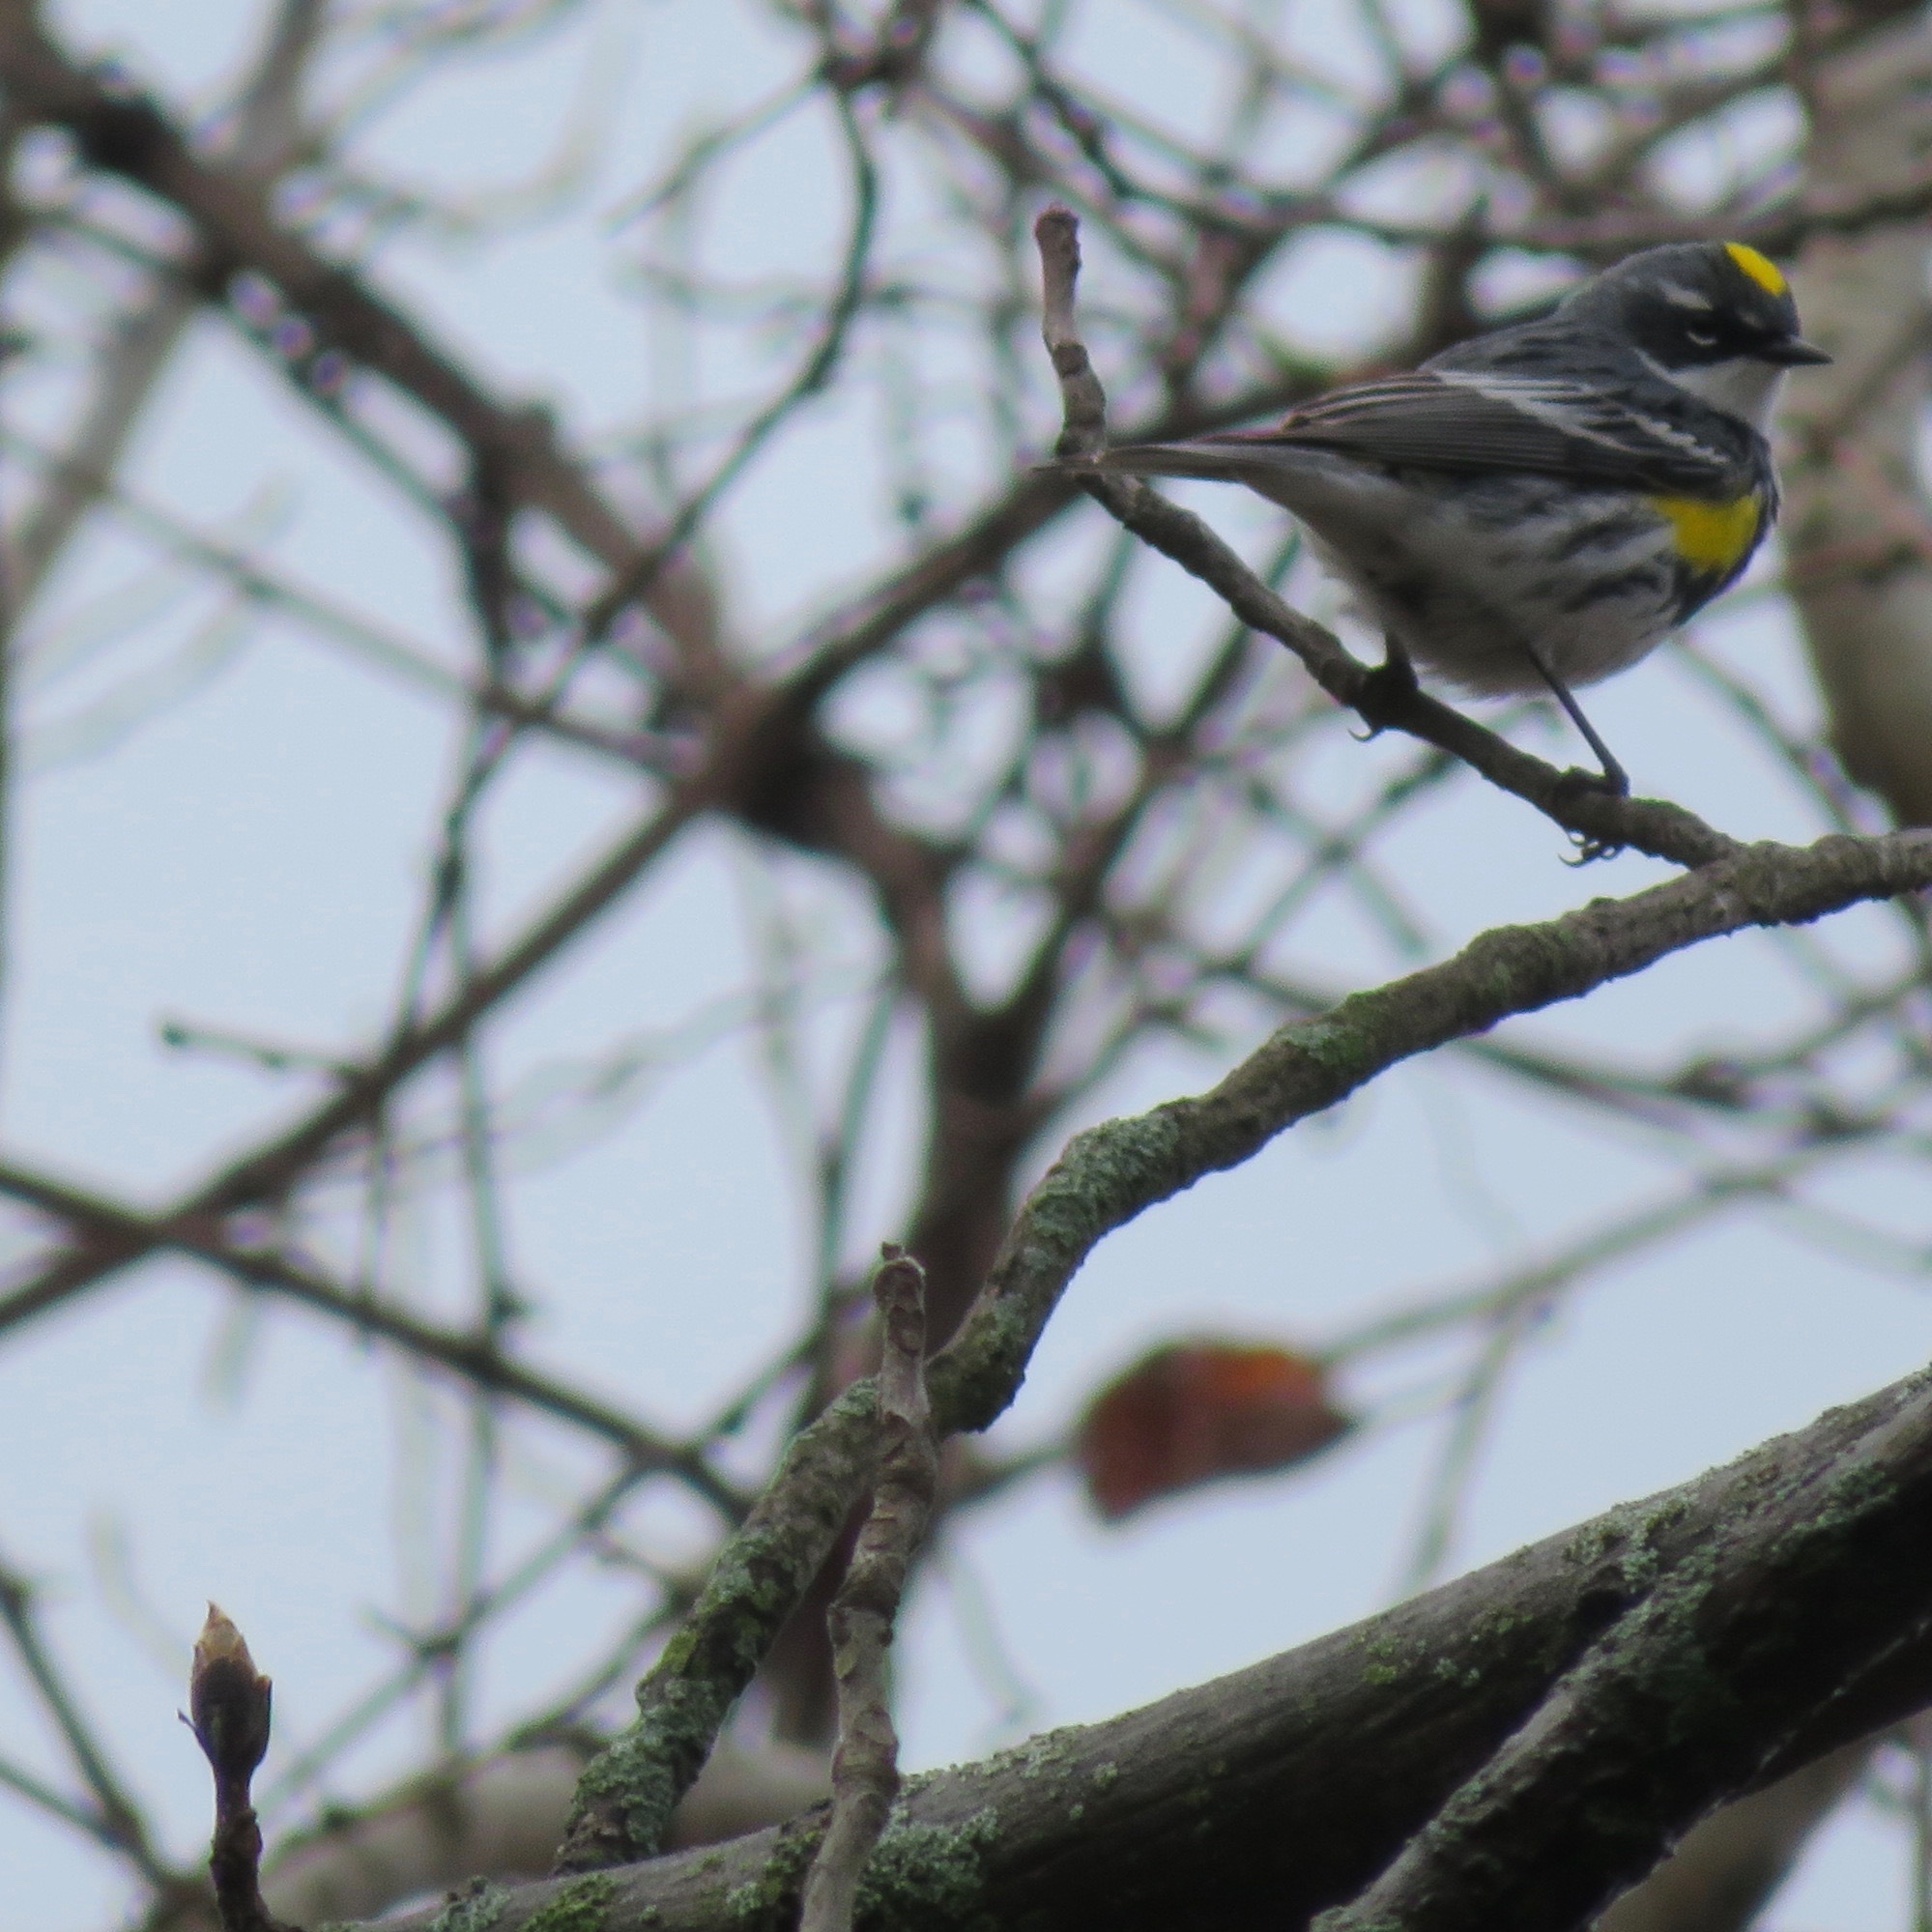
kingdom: Animalia
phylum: Chordata
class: Aves
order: Passeriformes
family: Parulidae
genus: Setophaga
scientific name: Setophaga coronata
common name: Myrtle warbler
